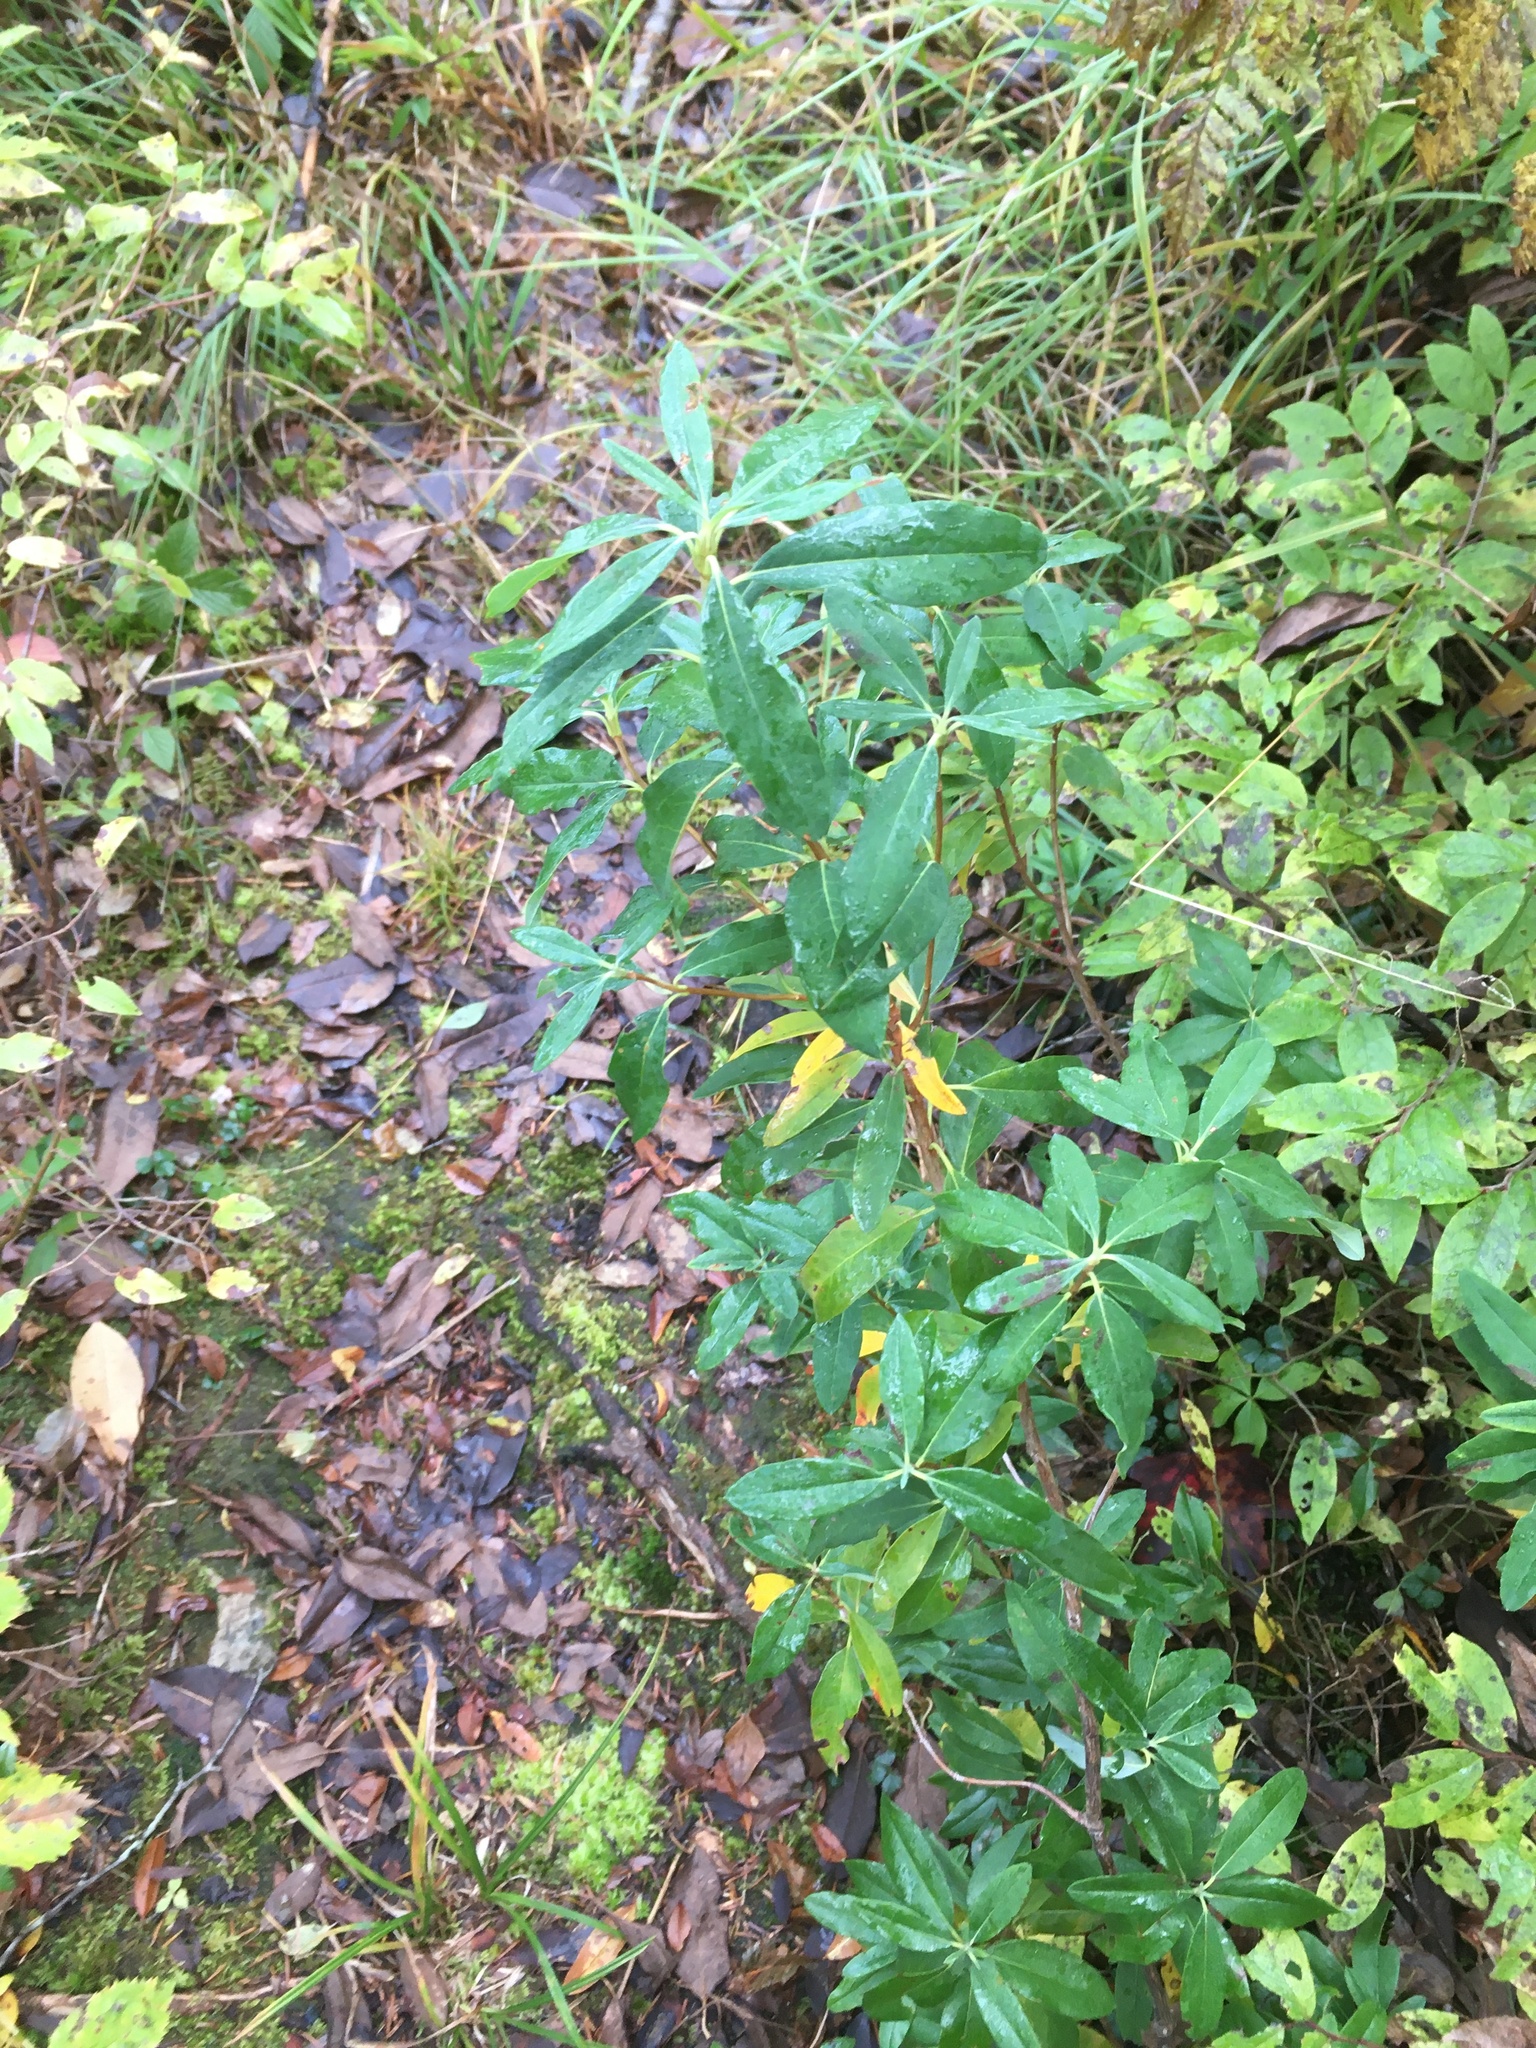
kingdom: Plantae
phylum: Tracheophyta
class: Magnoliopsida
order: Ericales
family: Ericaceae
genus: Kalmia
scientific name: Kalmia angustifolia
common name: Sheep-laurel
